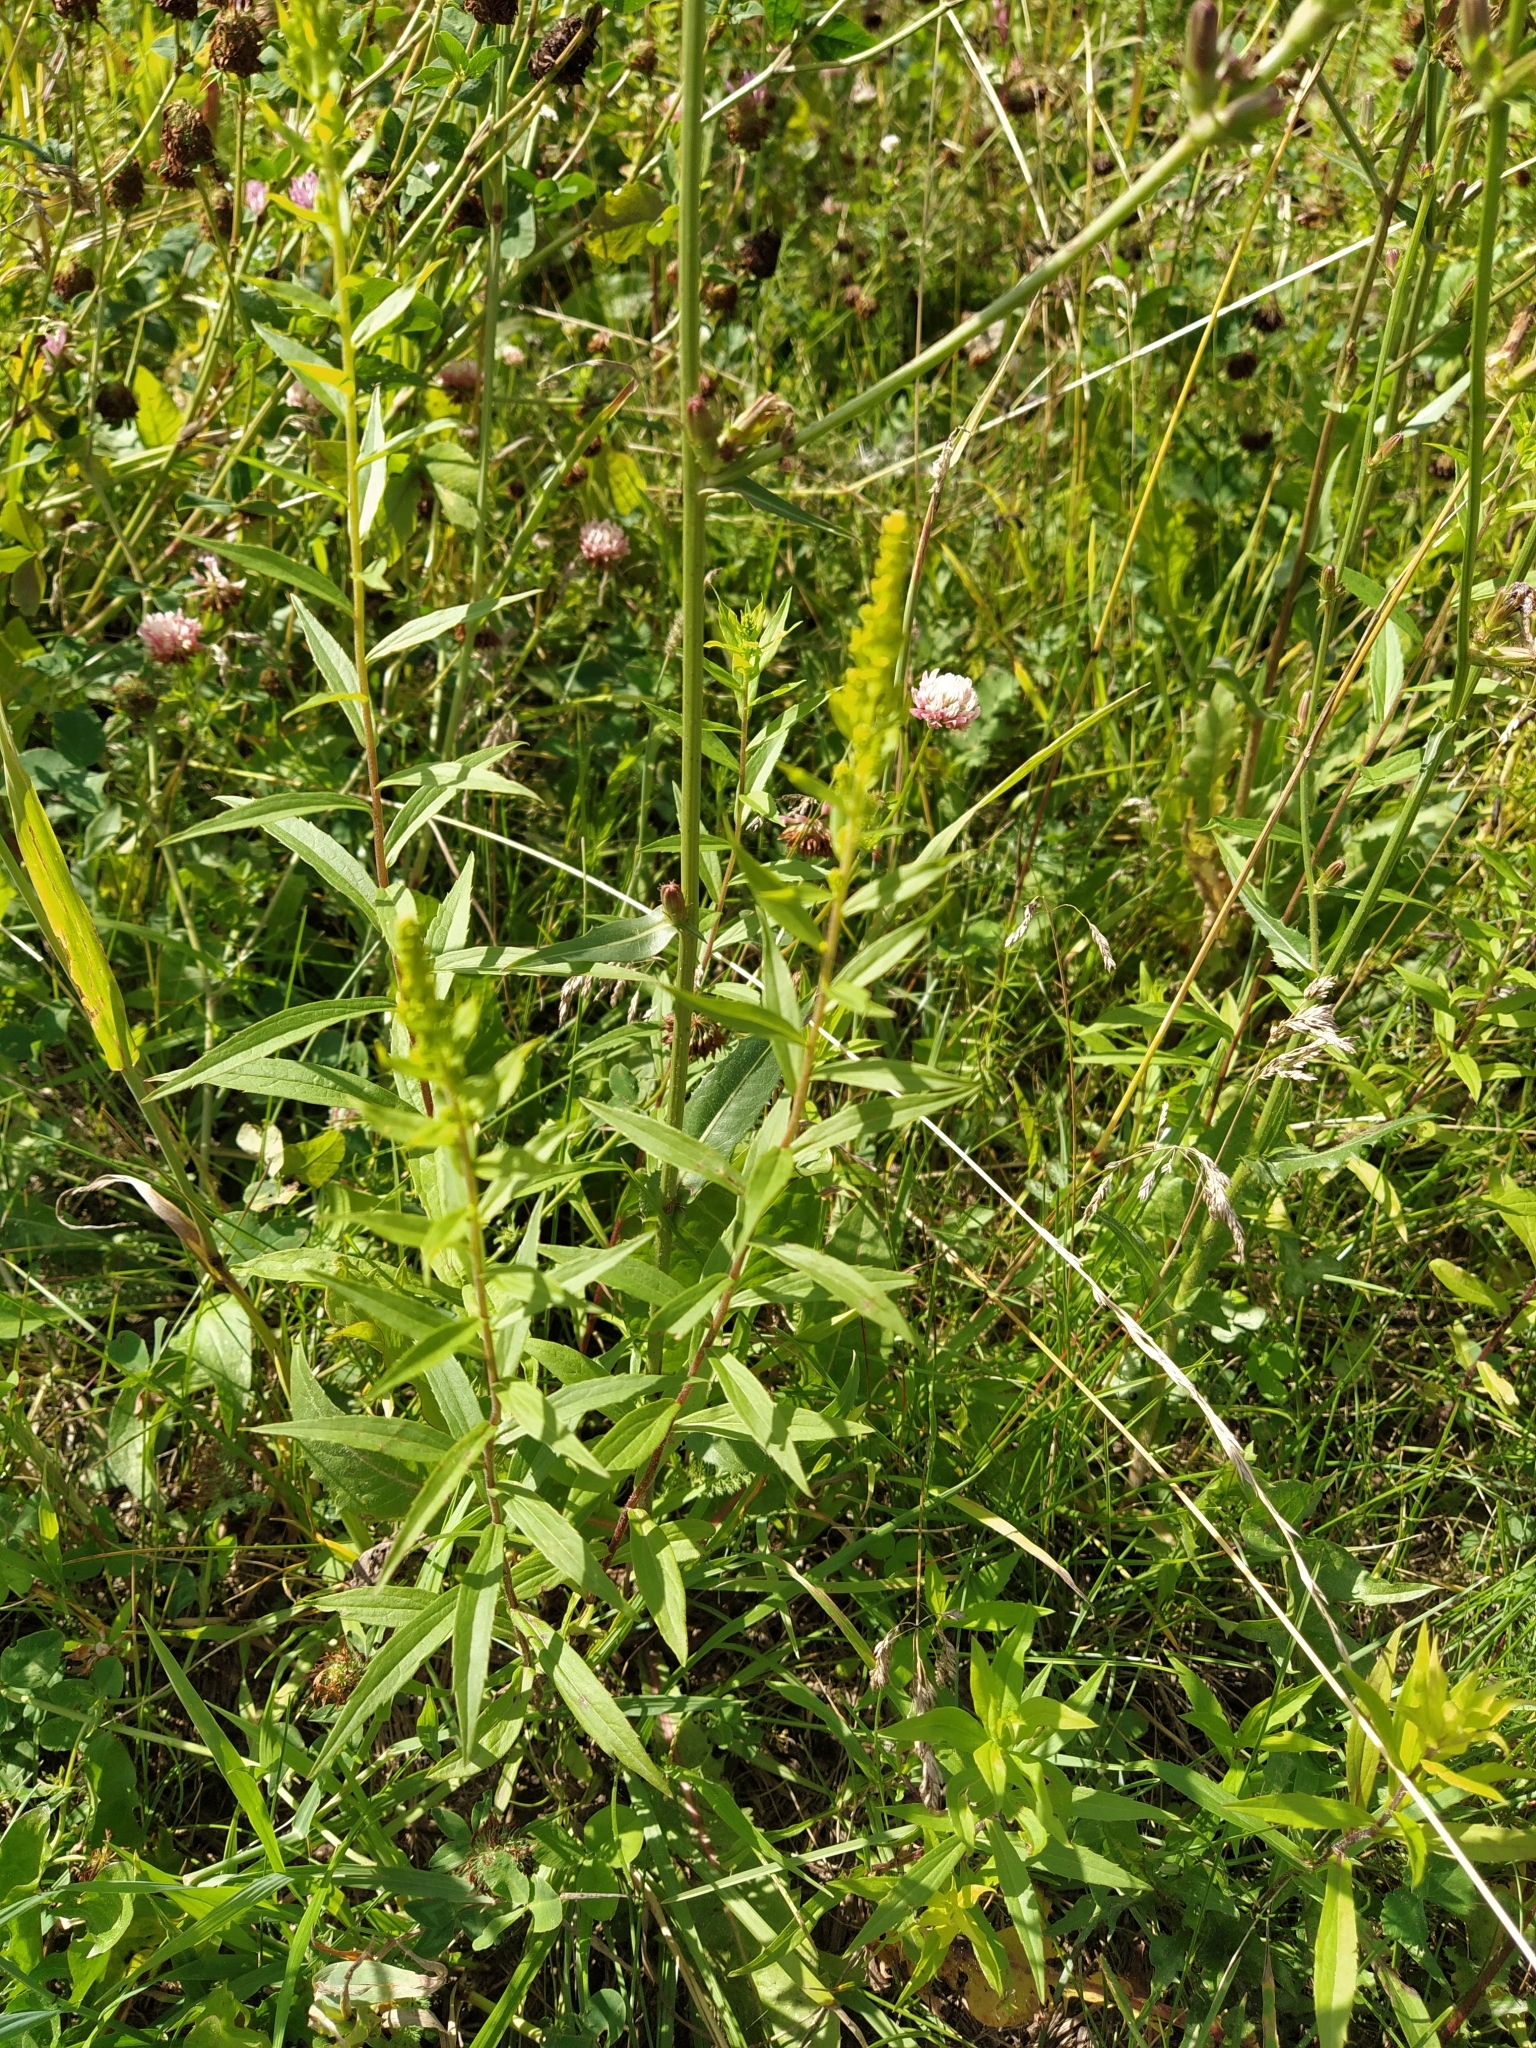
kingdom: Plantae
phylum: Tracheophyta
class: Magnoliopsida
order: Asterales
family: Asteraceae
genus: Solidago
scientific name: Solidago canadensis
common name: Canada goldenrod
